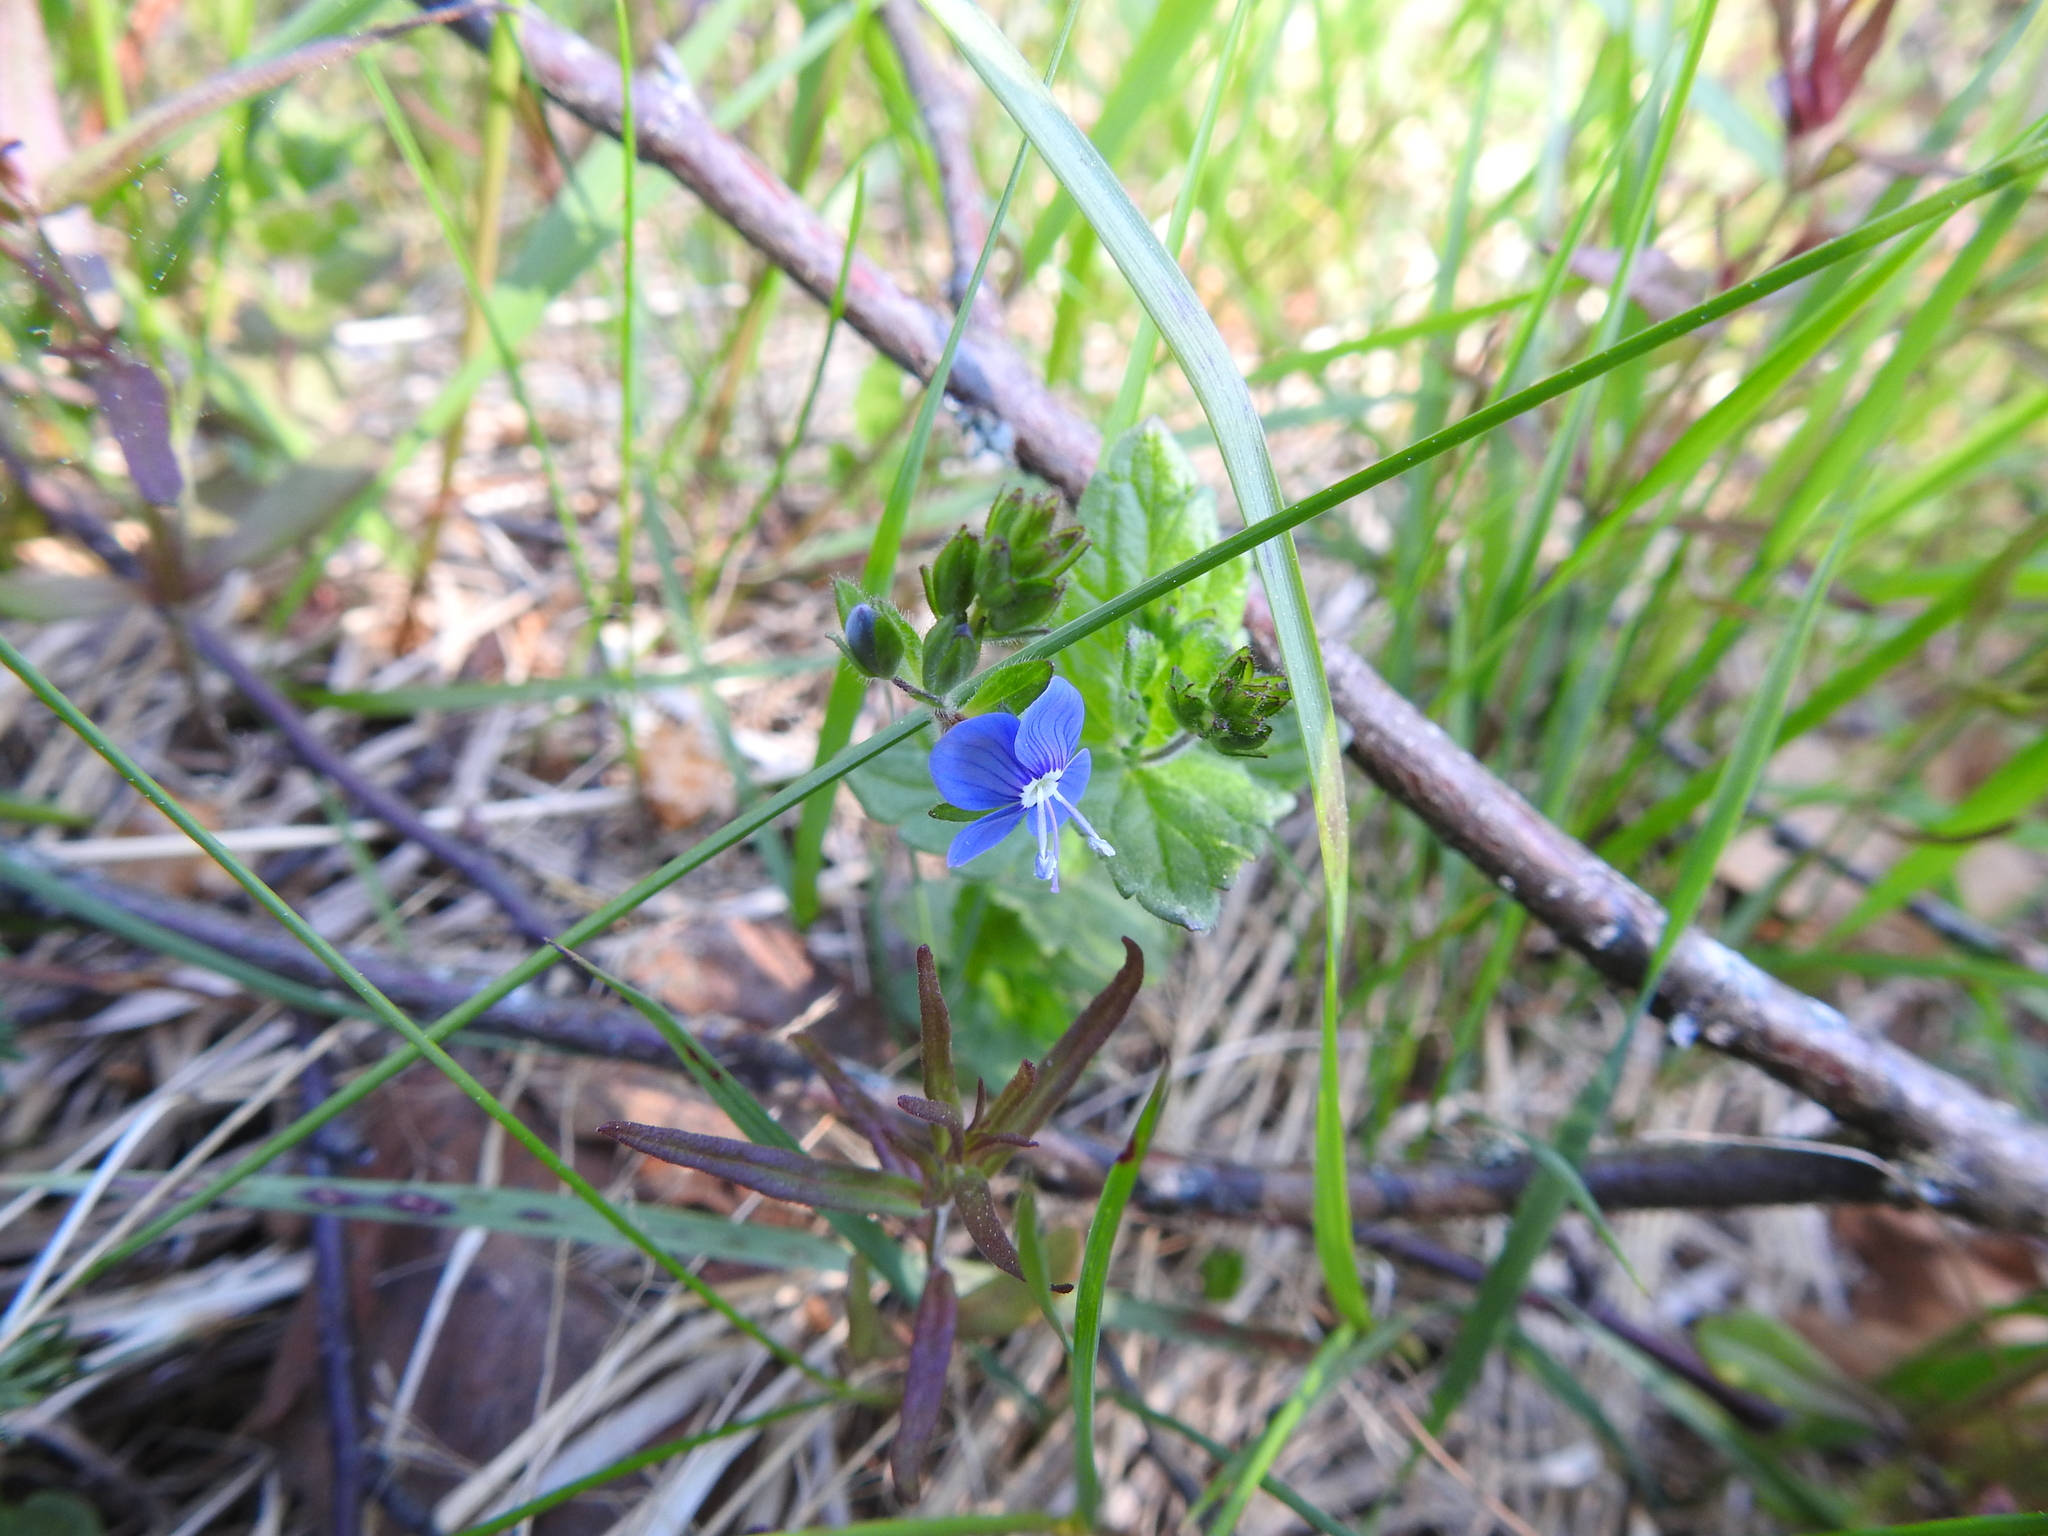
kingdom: Plantae
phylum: Tracheophyta
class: Magnoliopsida
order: Lamiales
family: Plantaginaceae
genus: Veronica
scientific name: Veronica chamaedrys
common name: Germander speedwell
